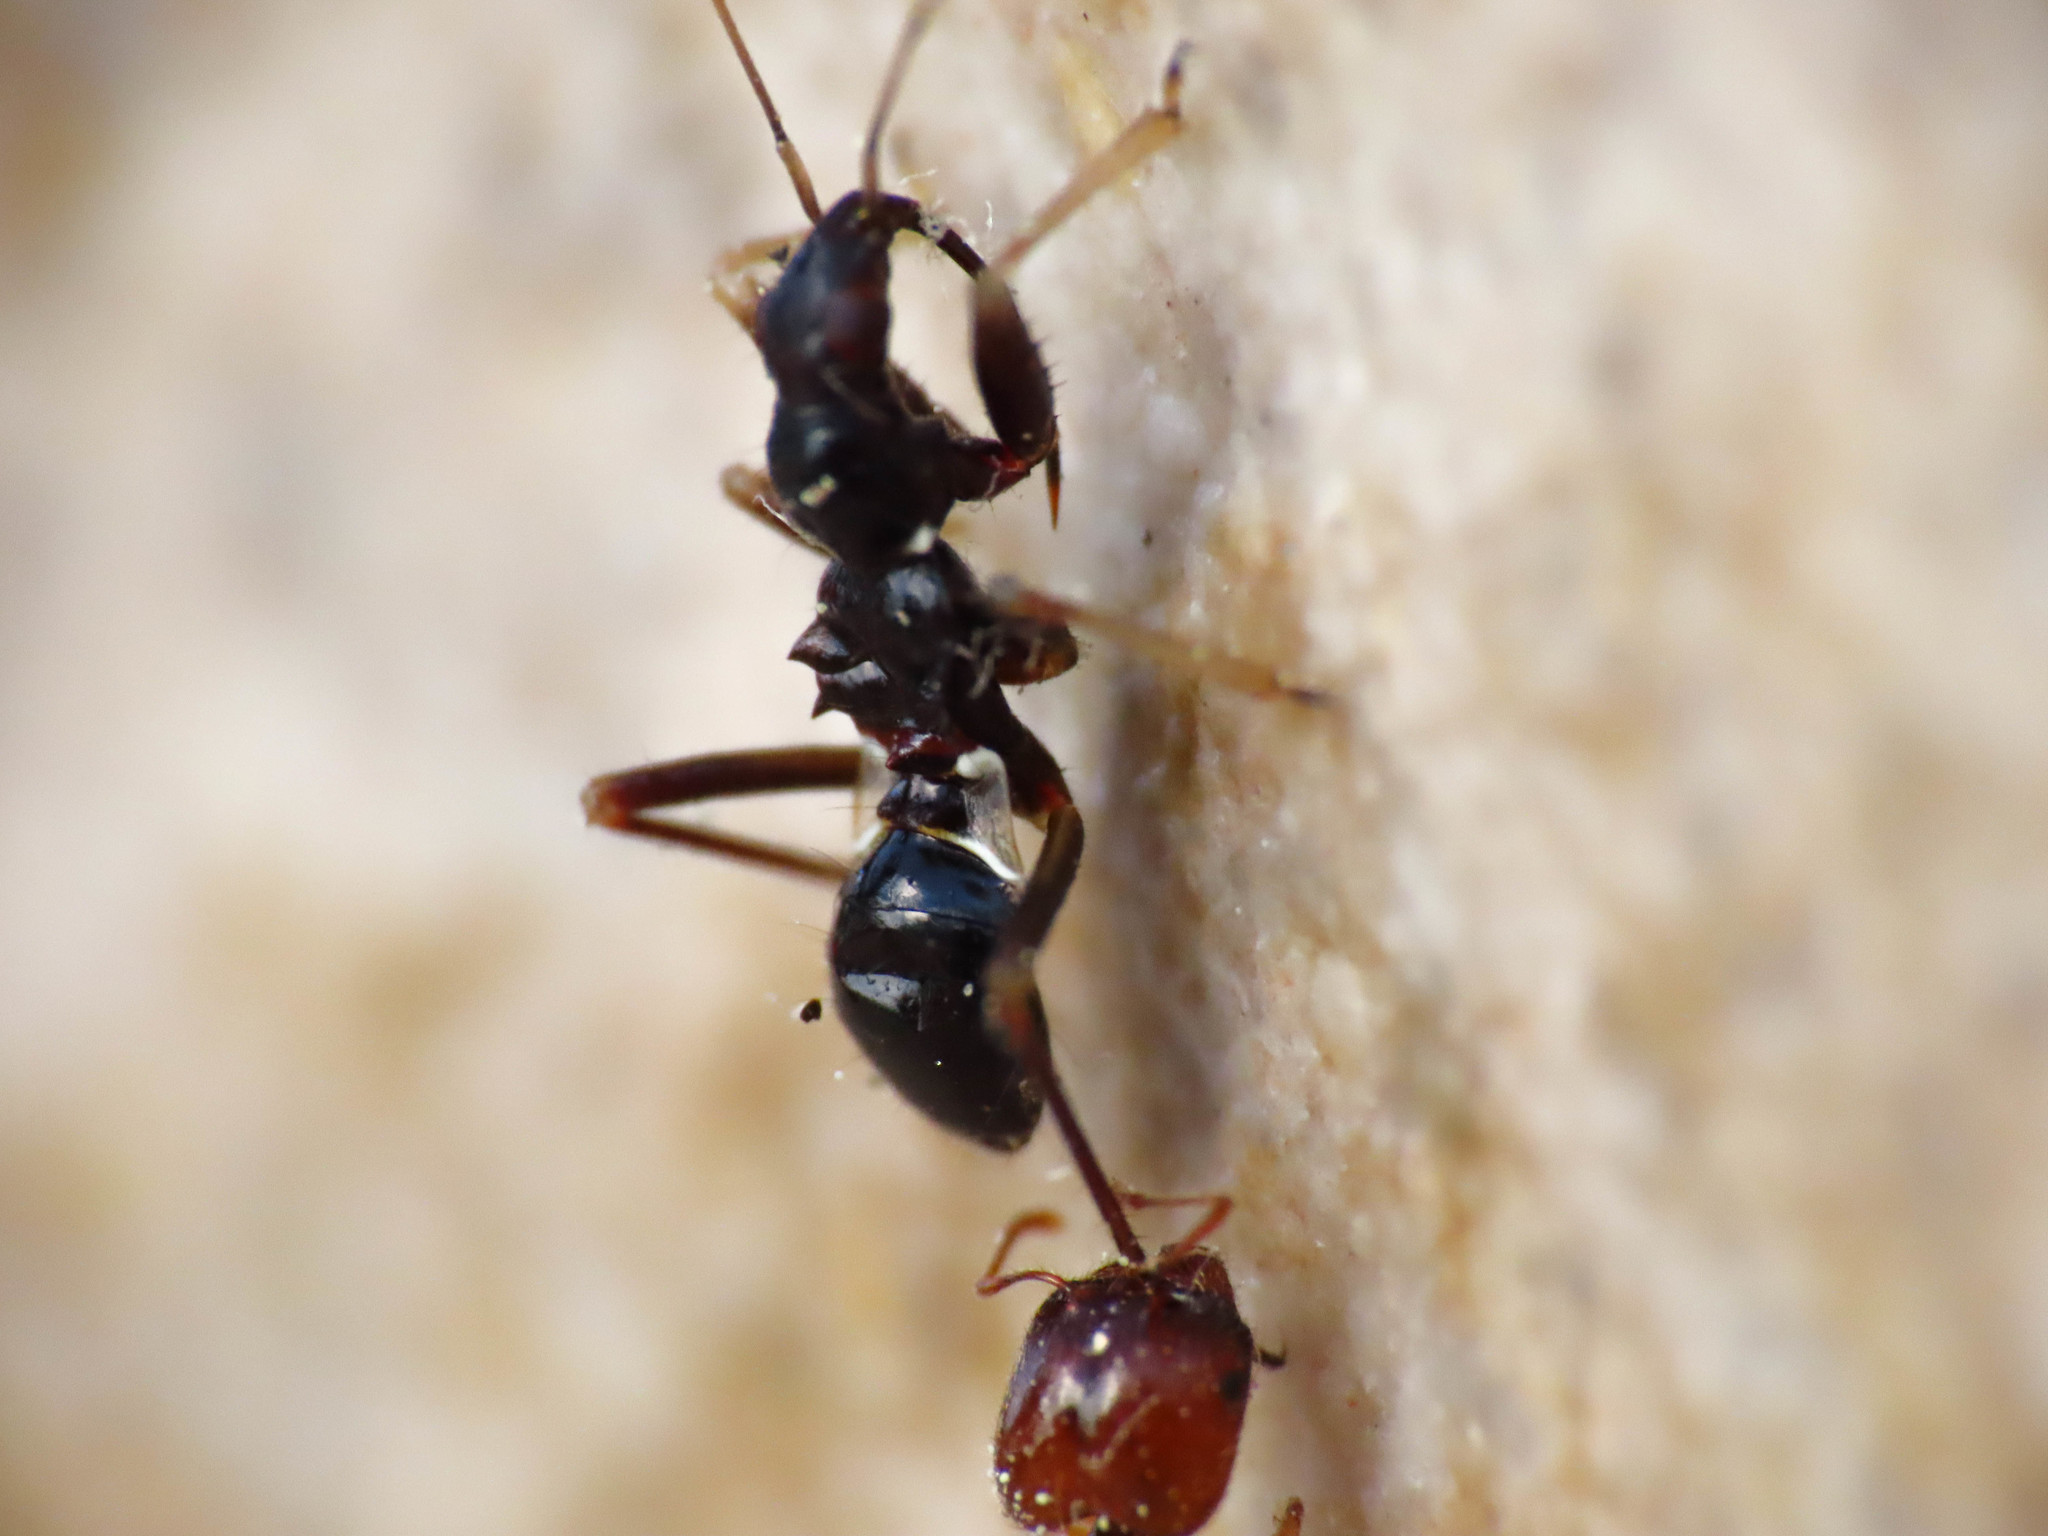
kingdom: Animalia
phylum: Arthropoda
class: Insecta
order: Hemiptera
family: Nabidae
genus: Himacerus
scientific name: Himacerus mirmicoides
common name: Ant damsel bug
